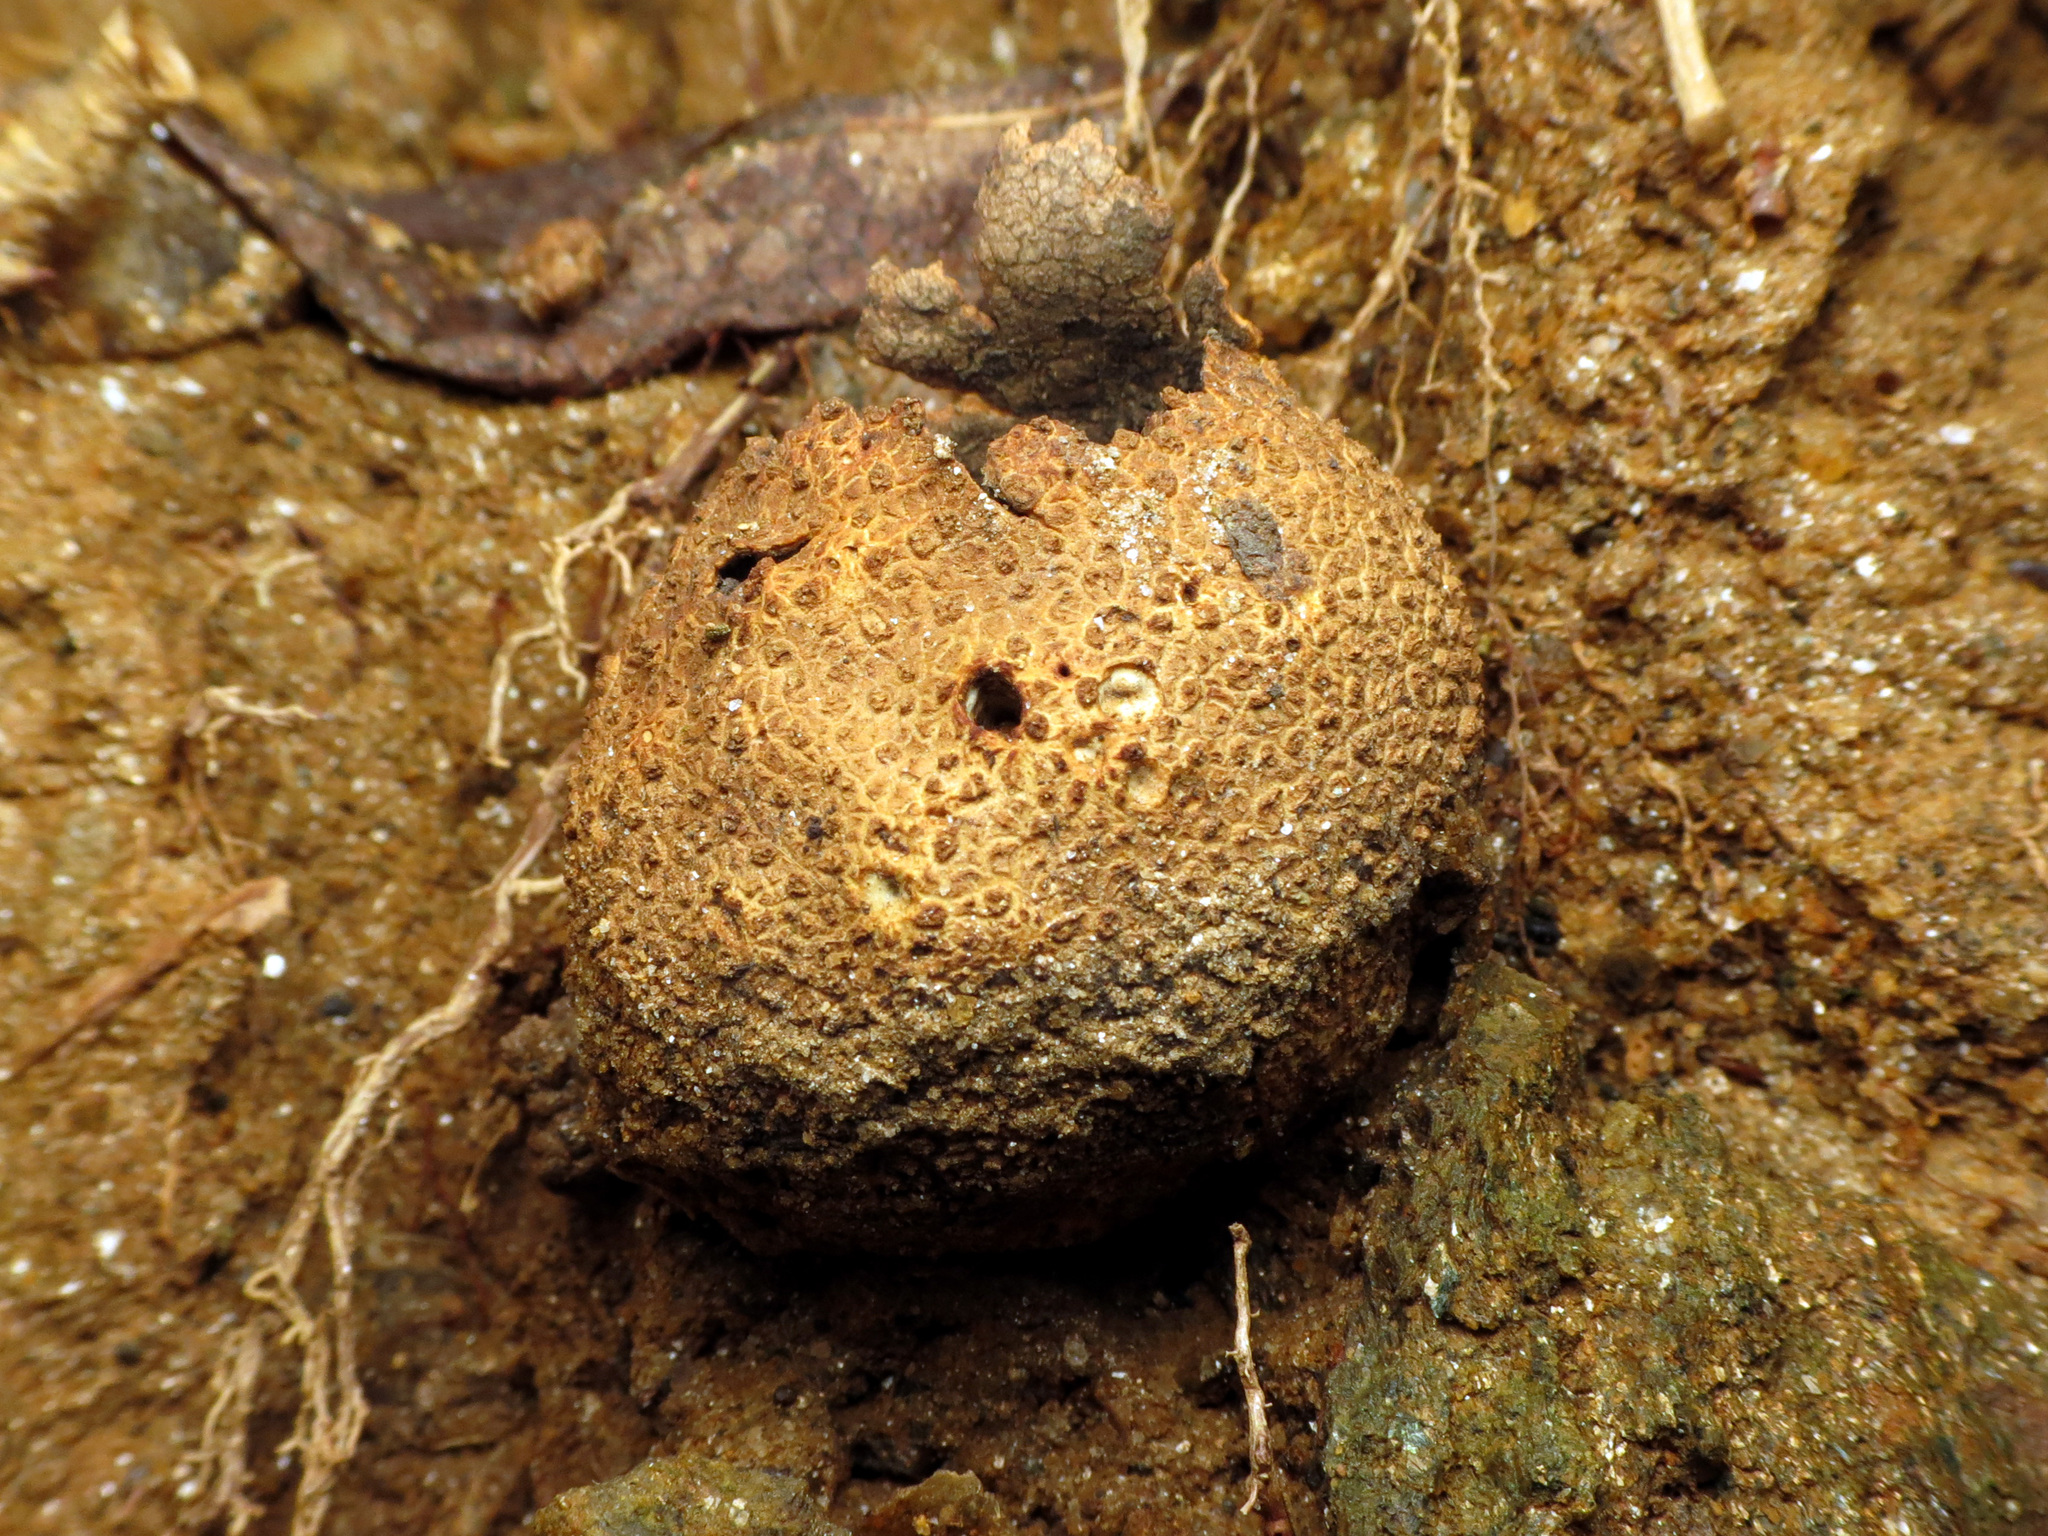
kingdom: Fungi
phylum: Basidiomycota
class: Agaricomycetes
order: Boletales
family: Sclerodermataceae
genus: Scleroderma
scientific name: Scleroderma citrinum
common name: Common earthball
